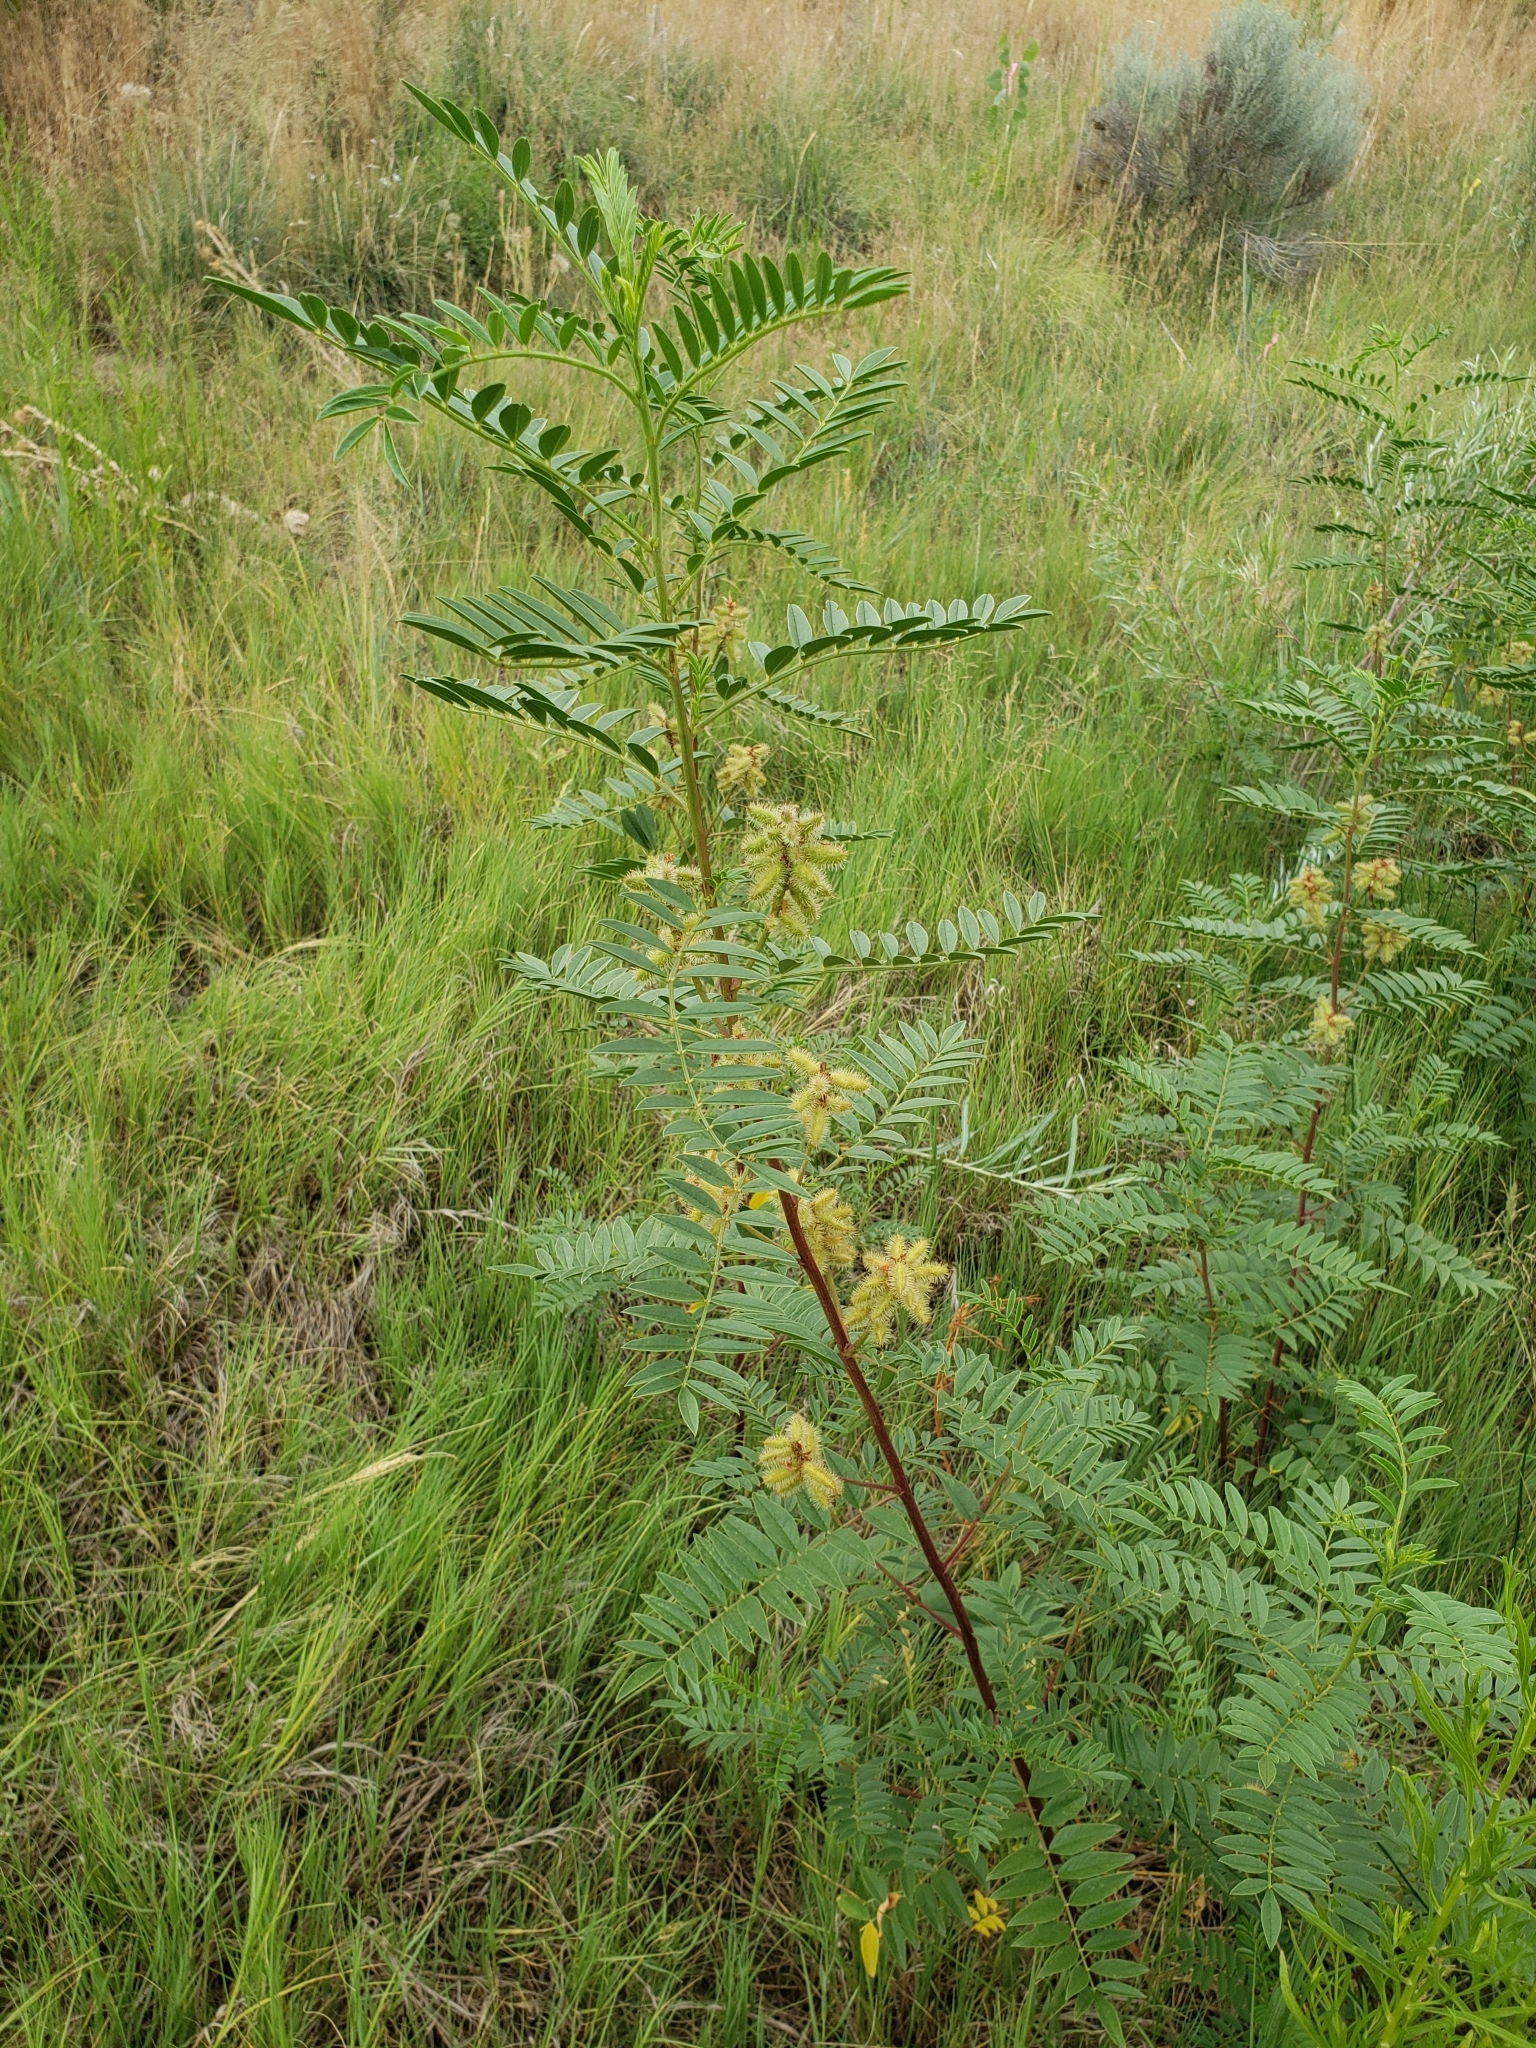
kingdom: Plantae
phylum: Tracheophyta
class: Magnoliopsida
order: Fabales
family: Fabaceae
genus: Glycyrrhiza
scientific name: Glycyrrhiza lepidota
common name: American liquorice
